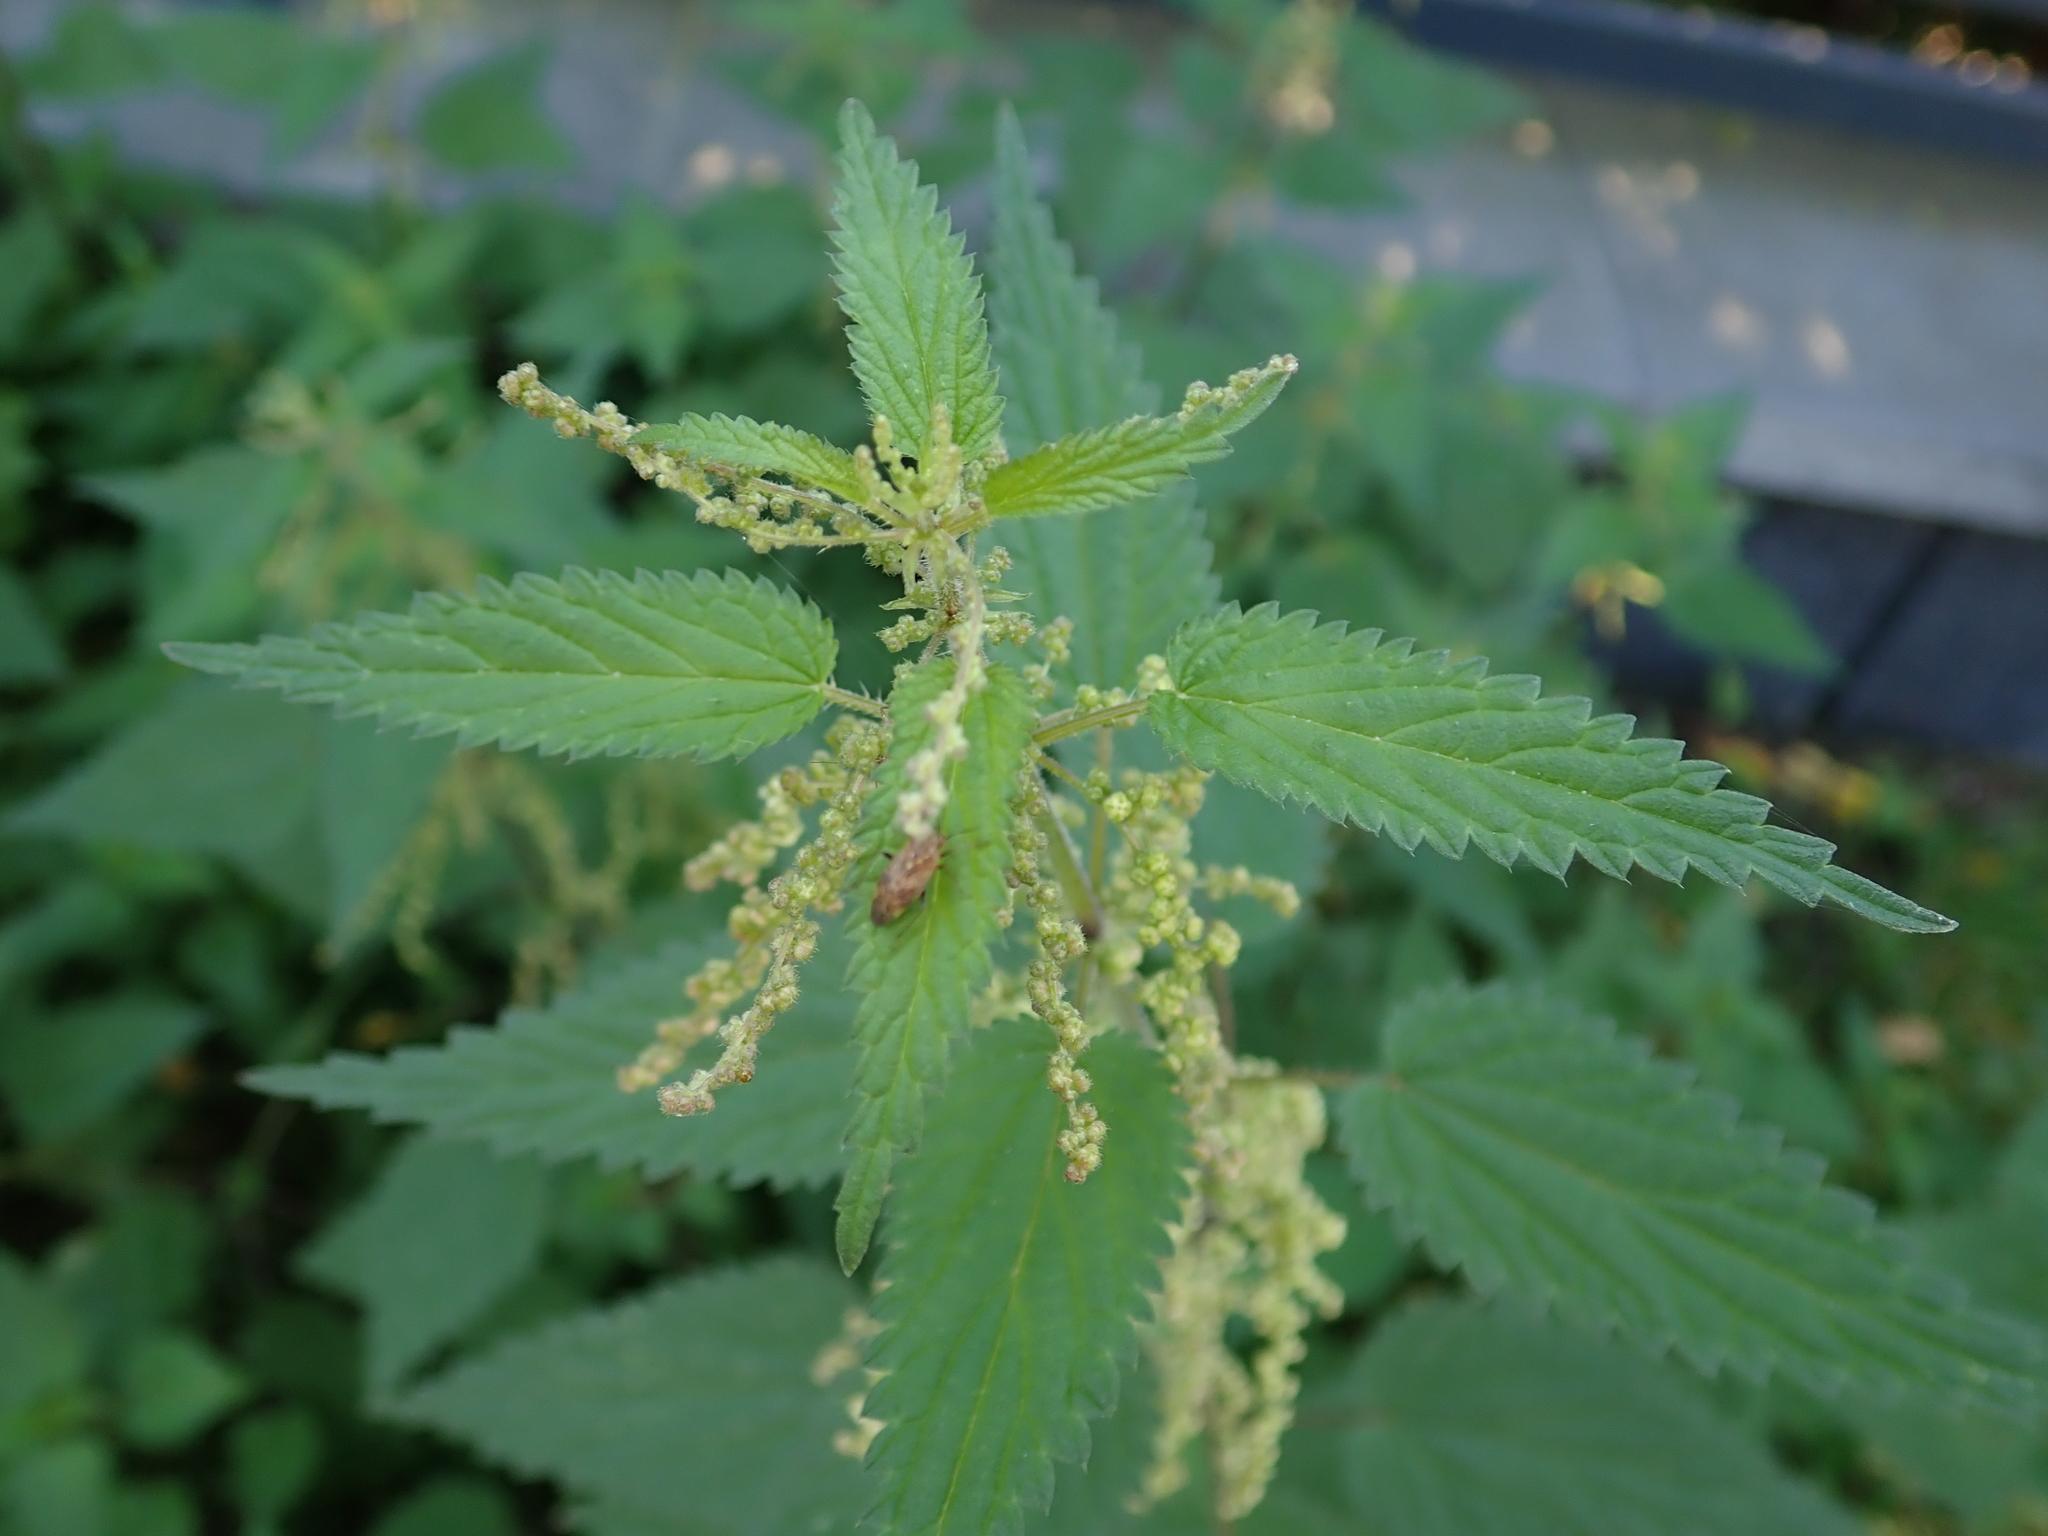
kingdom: Plantae
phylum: Tracheophyta
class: Magnoliopsida
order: Rosales
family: Urticaceae
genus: Urtica
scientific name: Urtica dioica
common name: Common nettle
